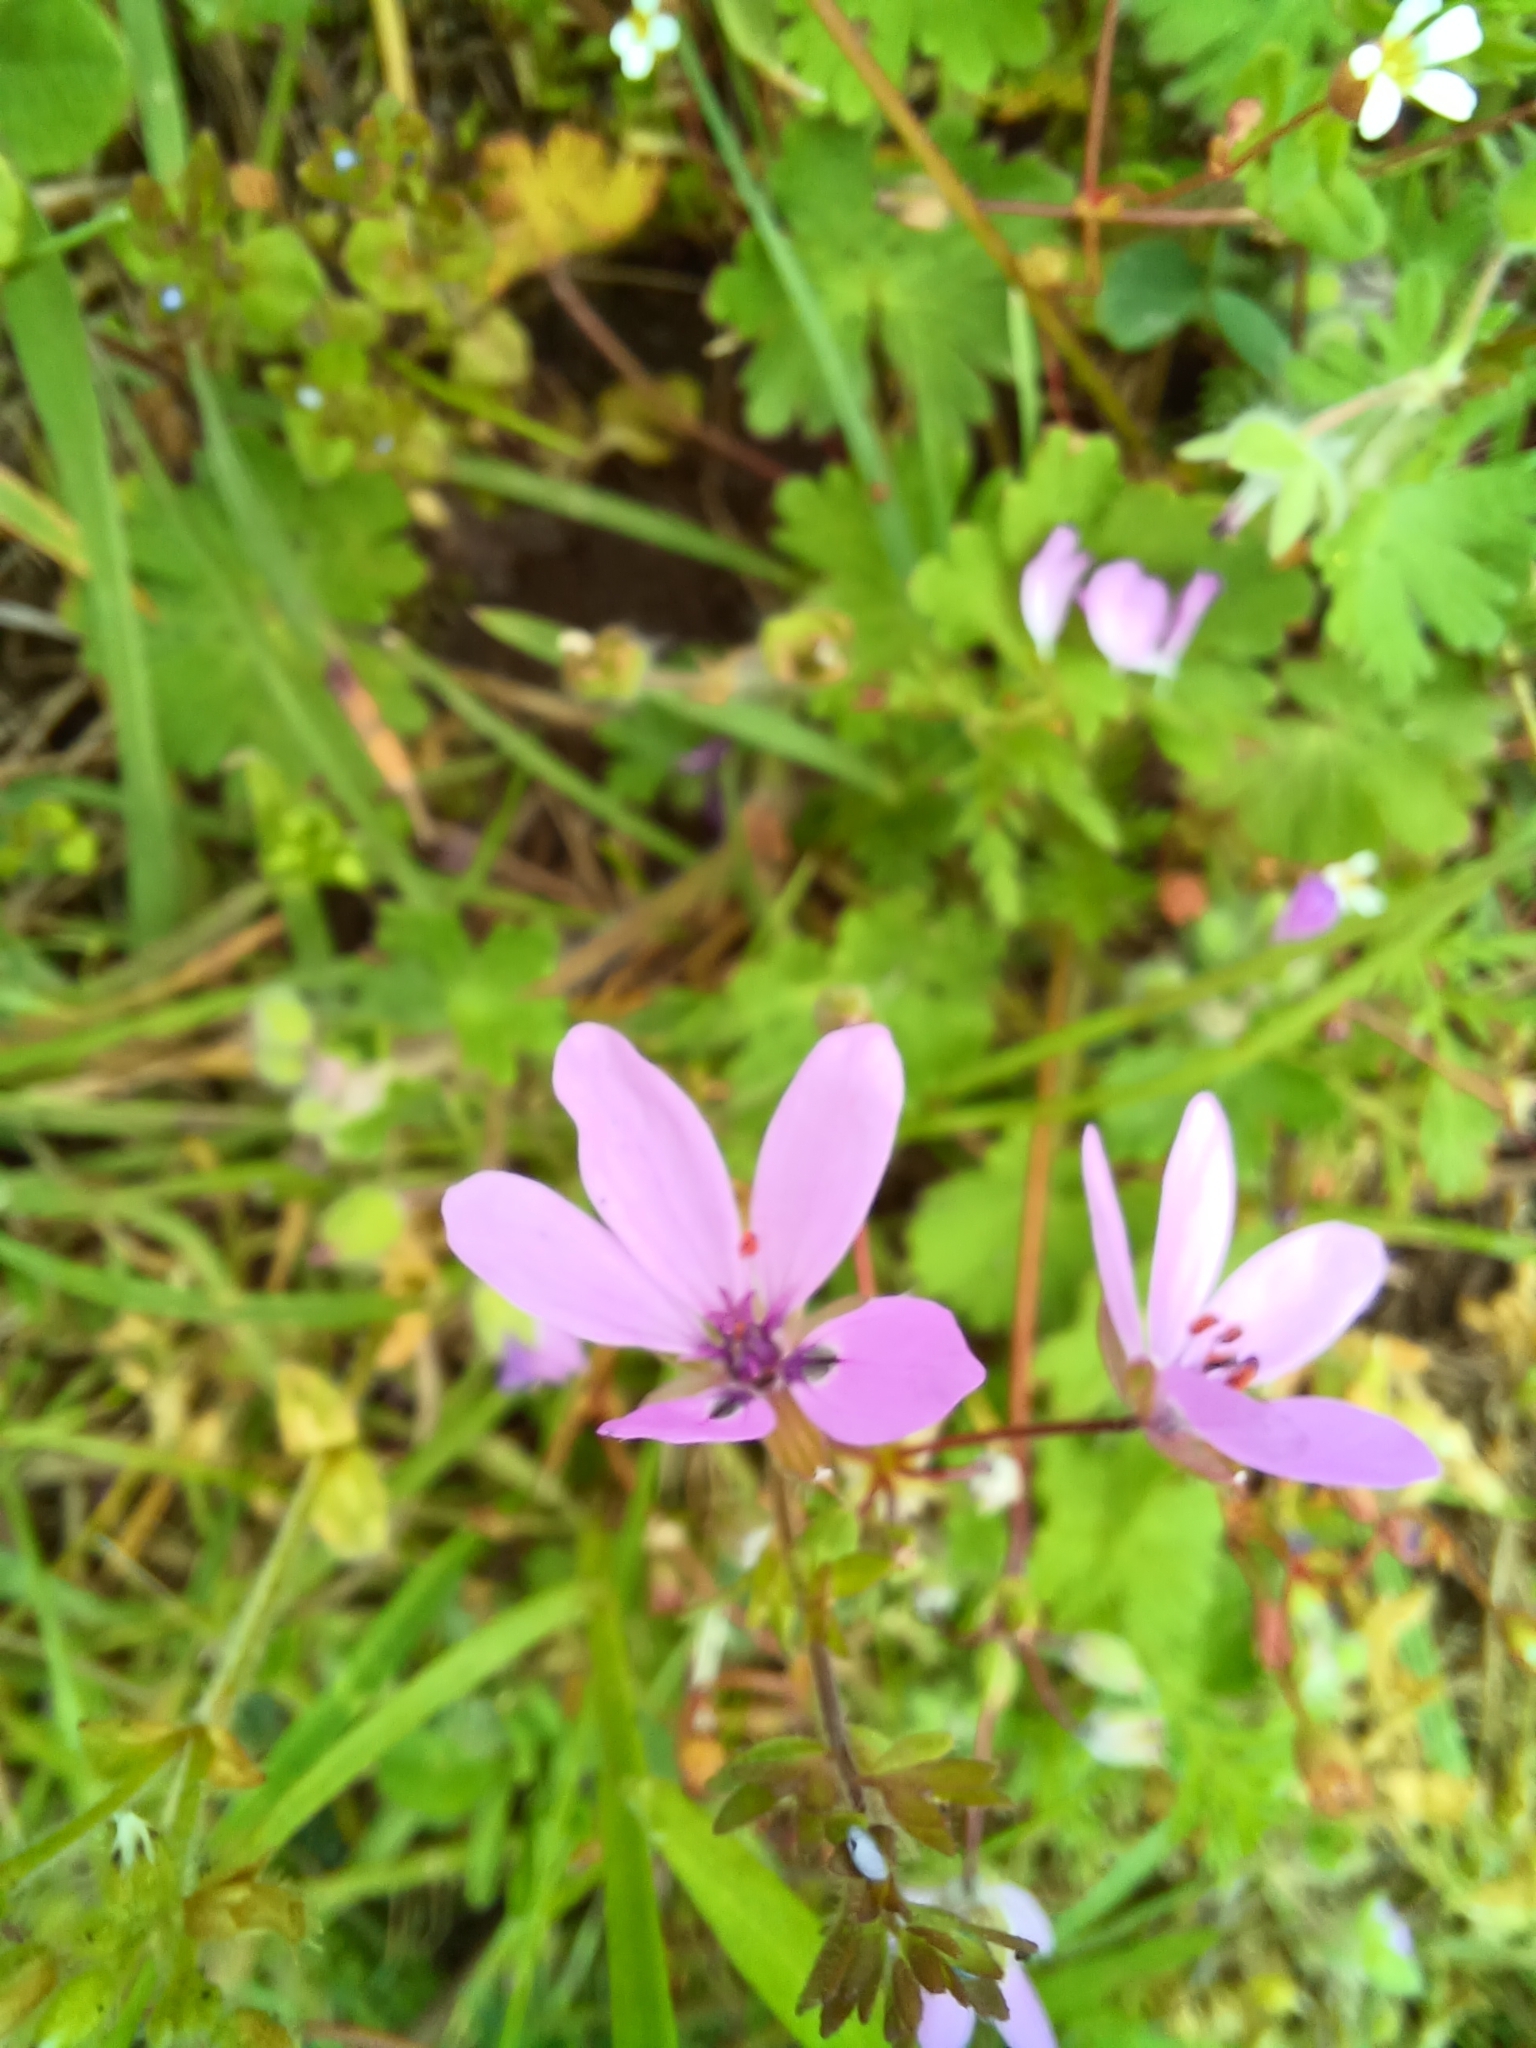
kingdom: Plantae
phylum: Tracheophyta
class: Magnoliopsida
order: Geraniales
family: Geraniaceae
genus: Erodium
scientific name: Erodium cicutarium
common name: Common stork's-bill
